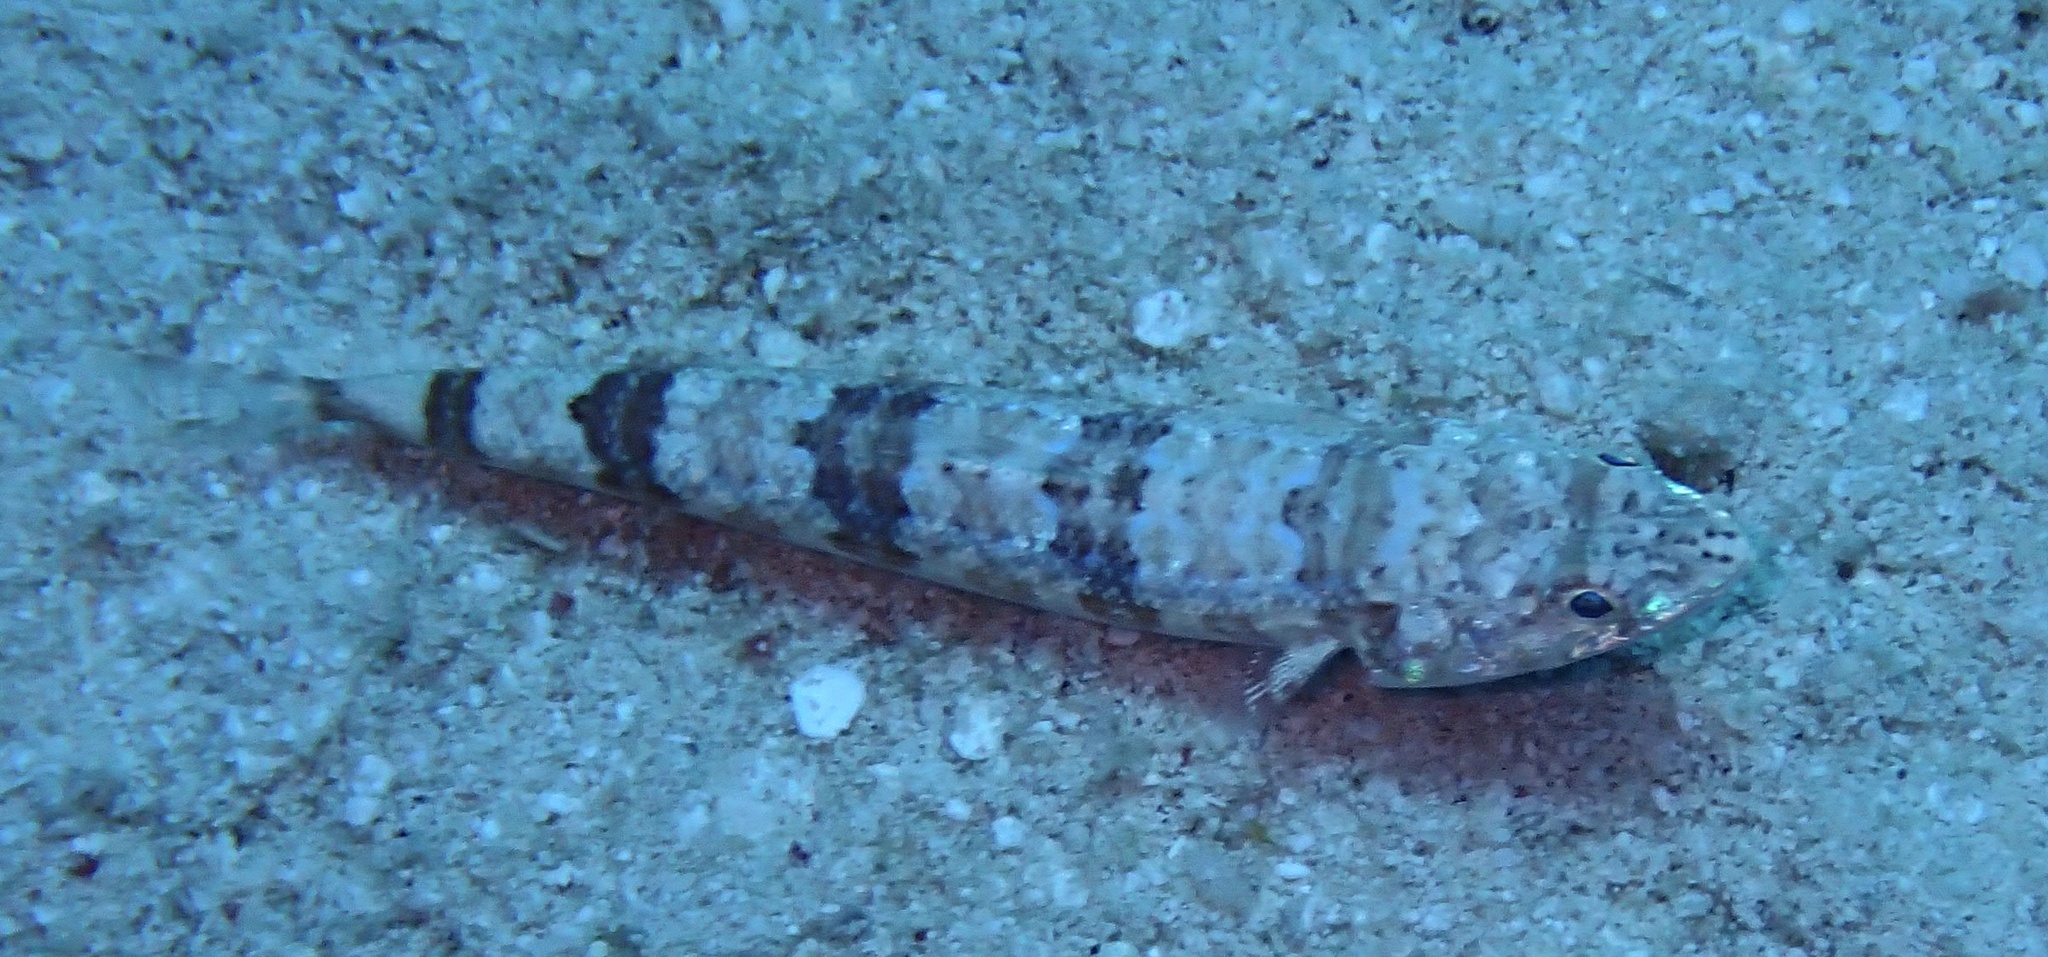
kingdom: Animalia
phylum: Chordata
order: Aulopiformes
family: Synodontidae
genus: Synodus
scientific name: Synodus variegatus
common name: Variegated lizardfish
